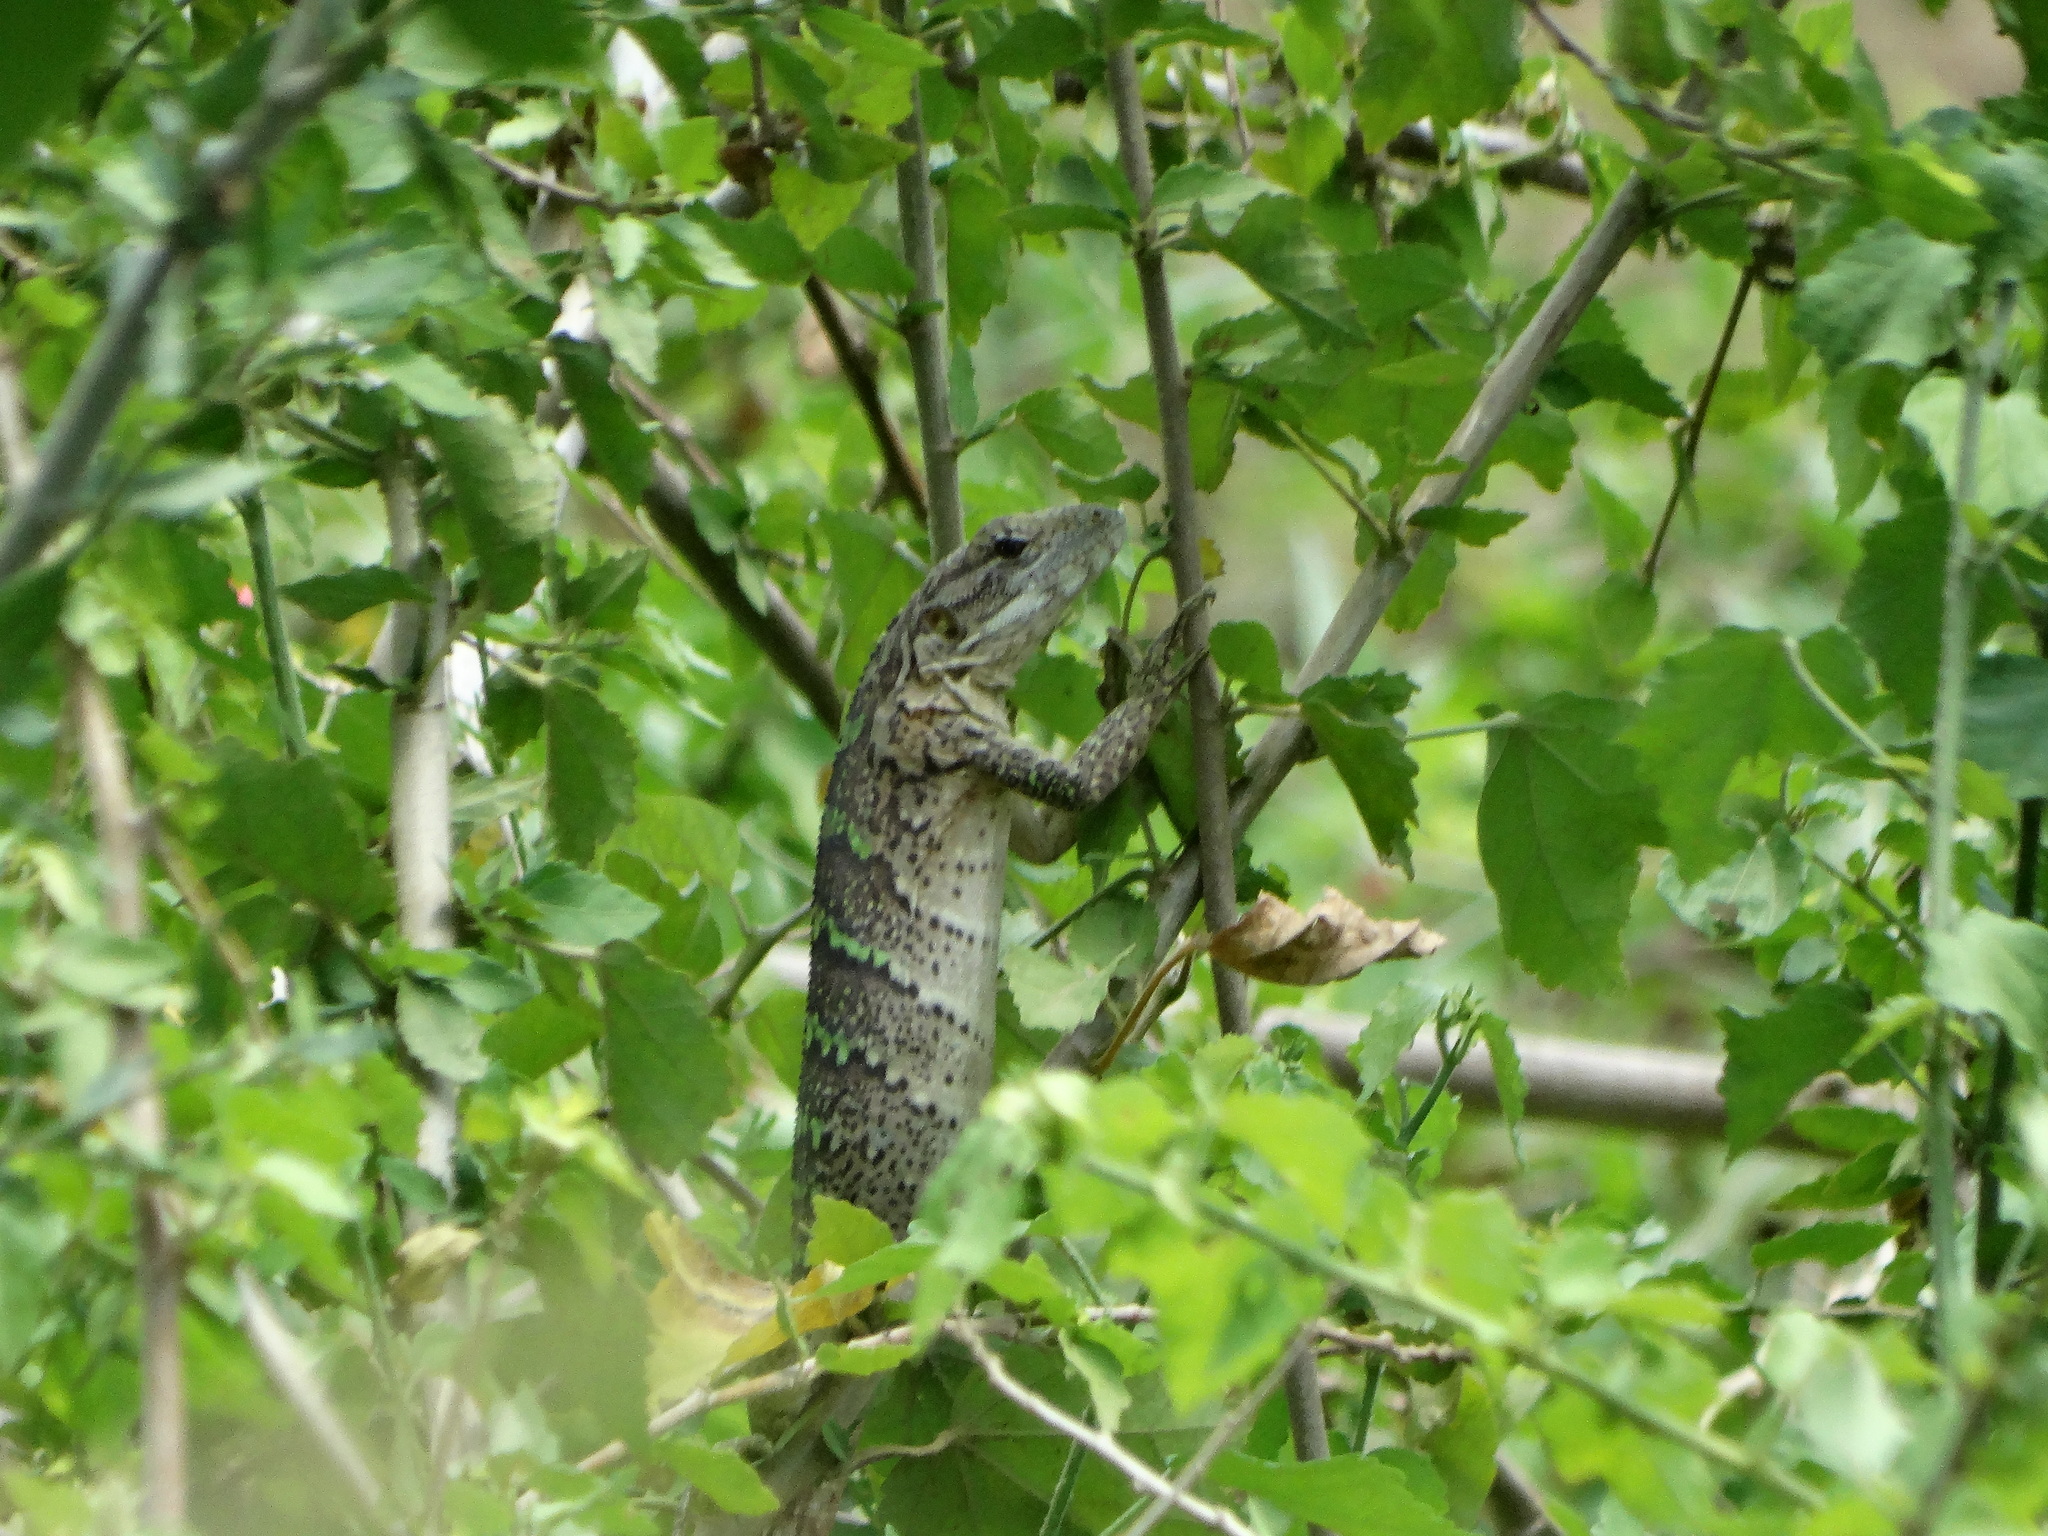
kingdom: Animalia
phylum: Chordata
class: Squamata
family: Iguanidae
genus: Ctenosaura
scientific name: Ctenosaura pectinata
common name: Guerreran spiny-tailed iguana
